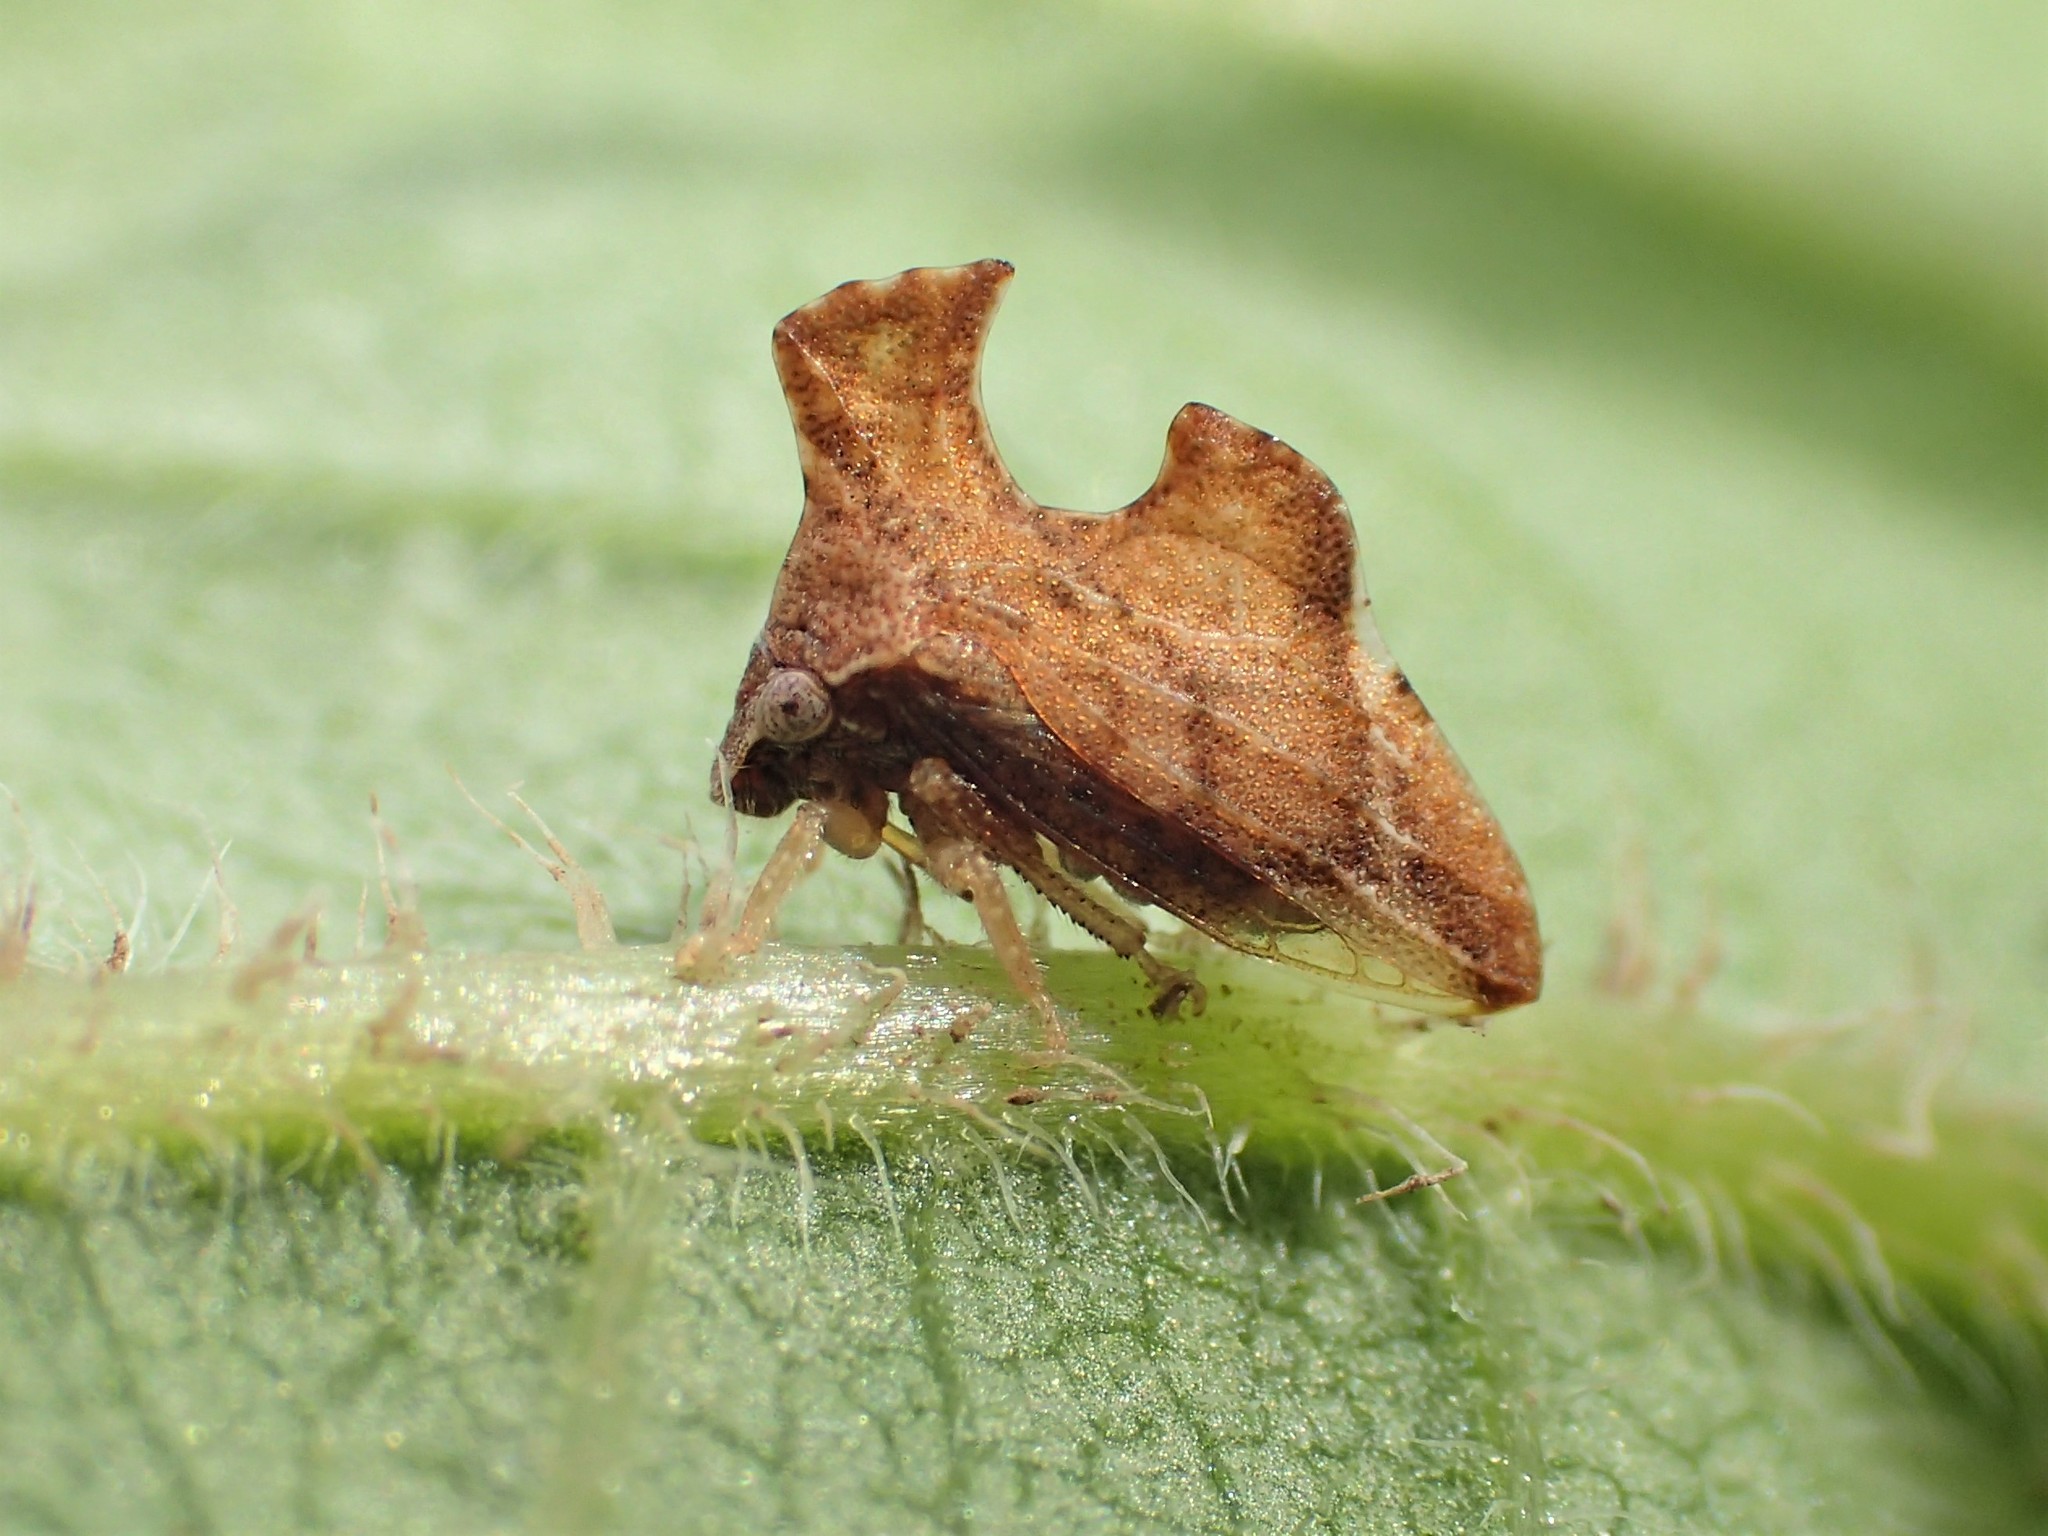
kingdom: Animalia
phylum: Arthropoda
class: Insecta
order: Hemiptera
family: Membracidae
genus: Entylia
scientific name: Entylia carinata
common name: Keeled treehopper
